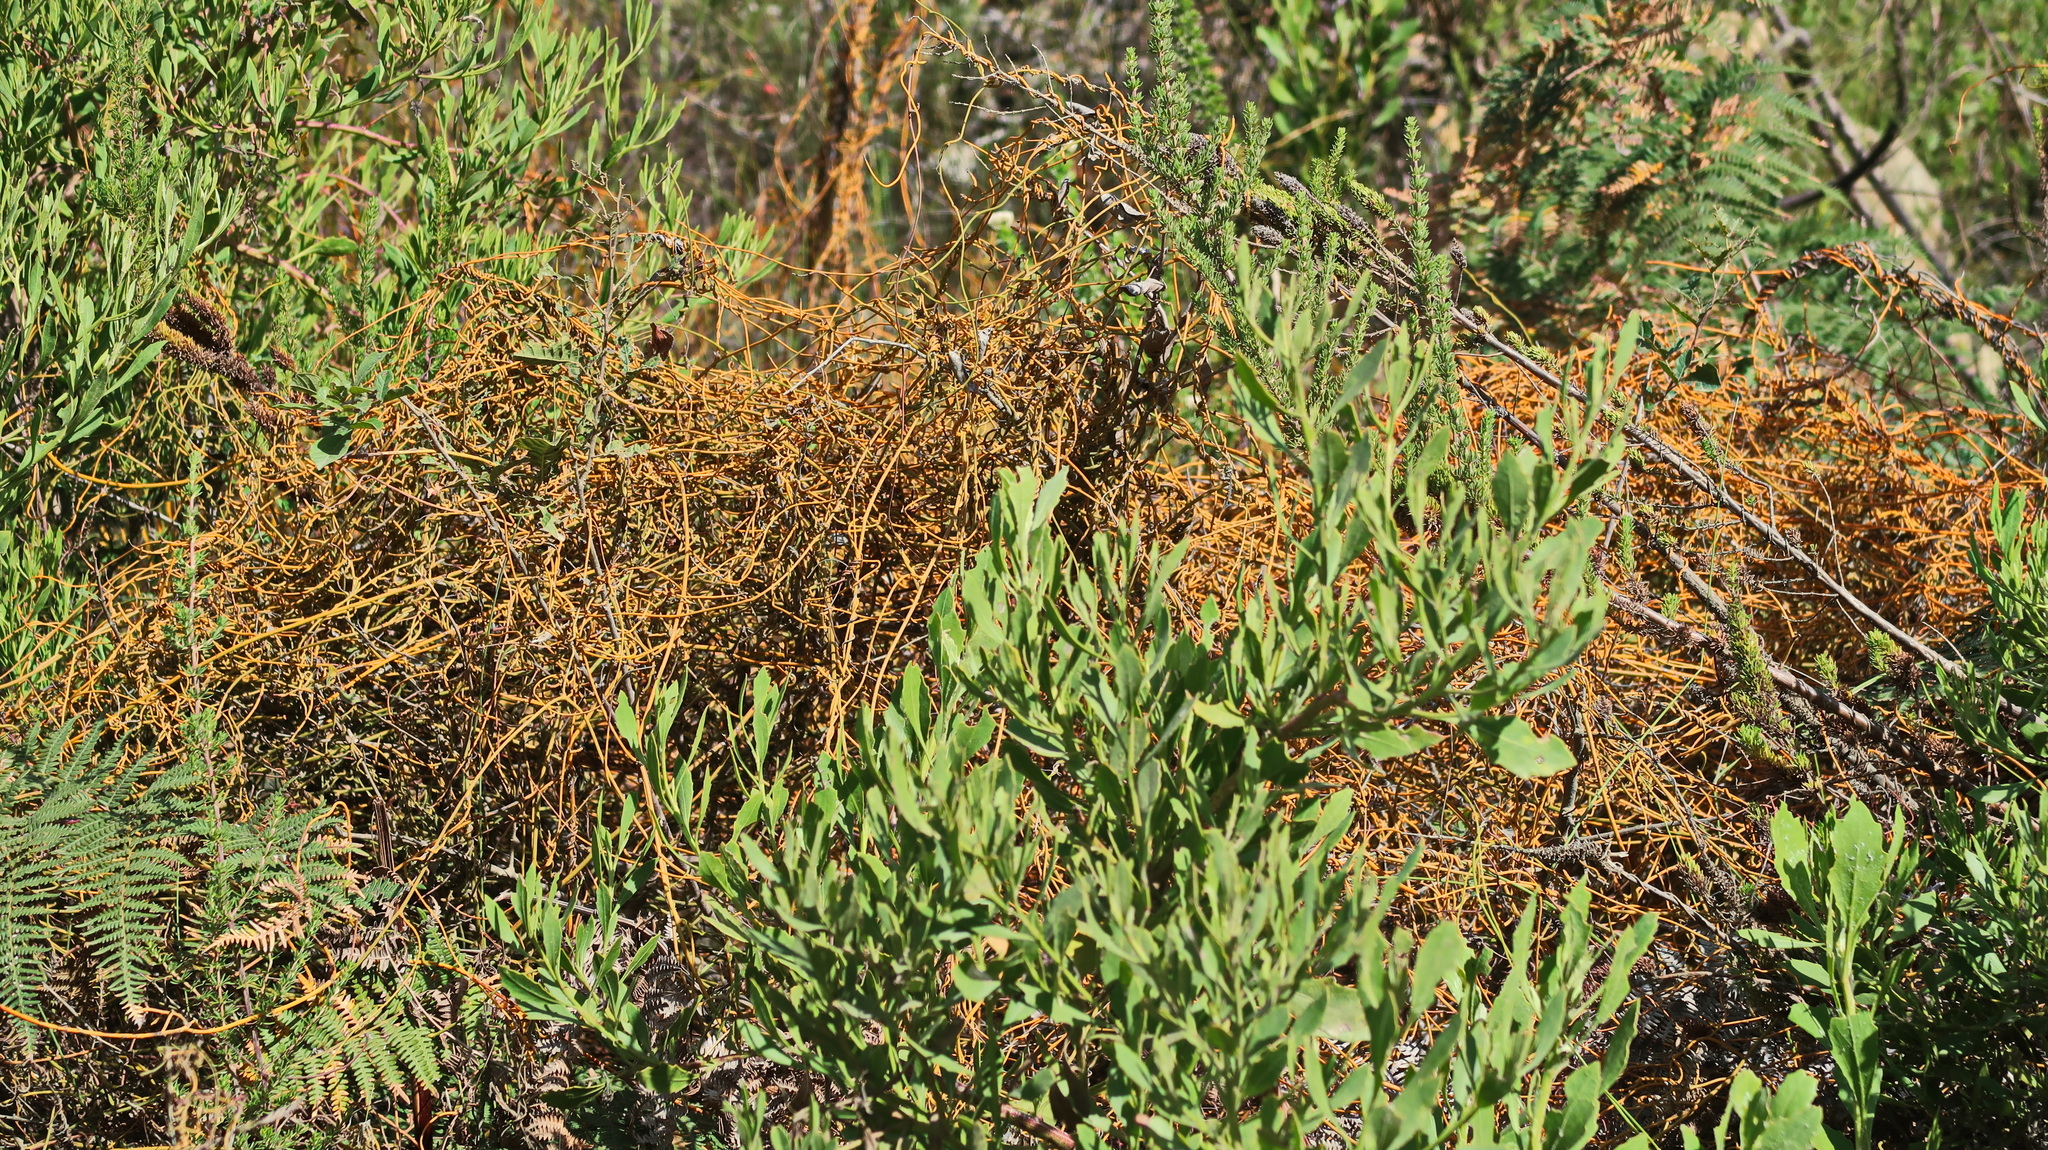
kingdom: Plantae
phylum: Tracheophyta
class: Magnoliopsida
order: Laurales
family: Lauraceae
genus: Cassytha
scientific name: Cassytha ciliolata
